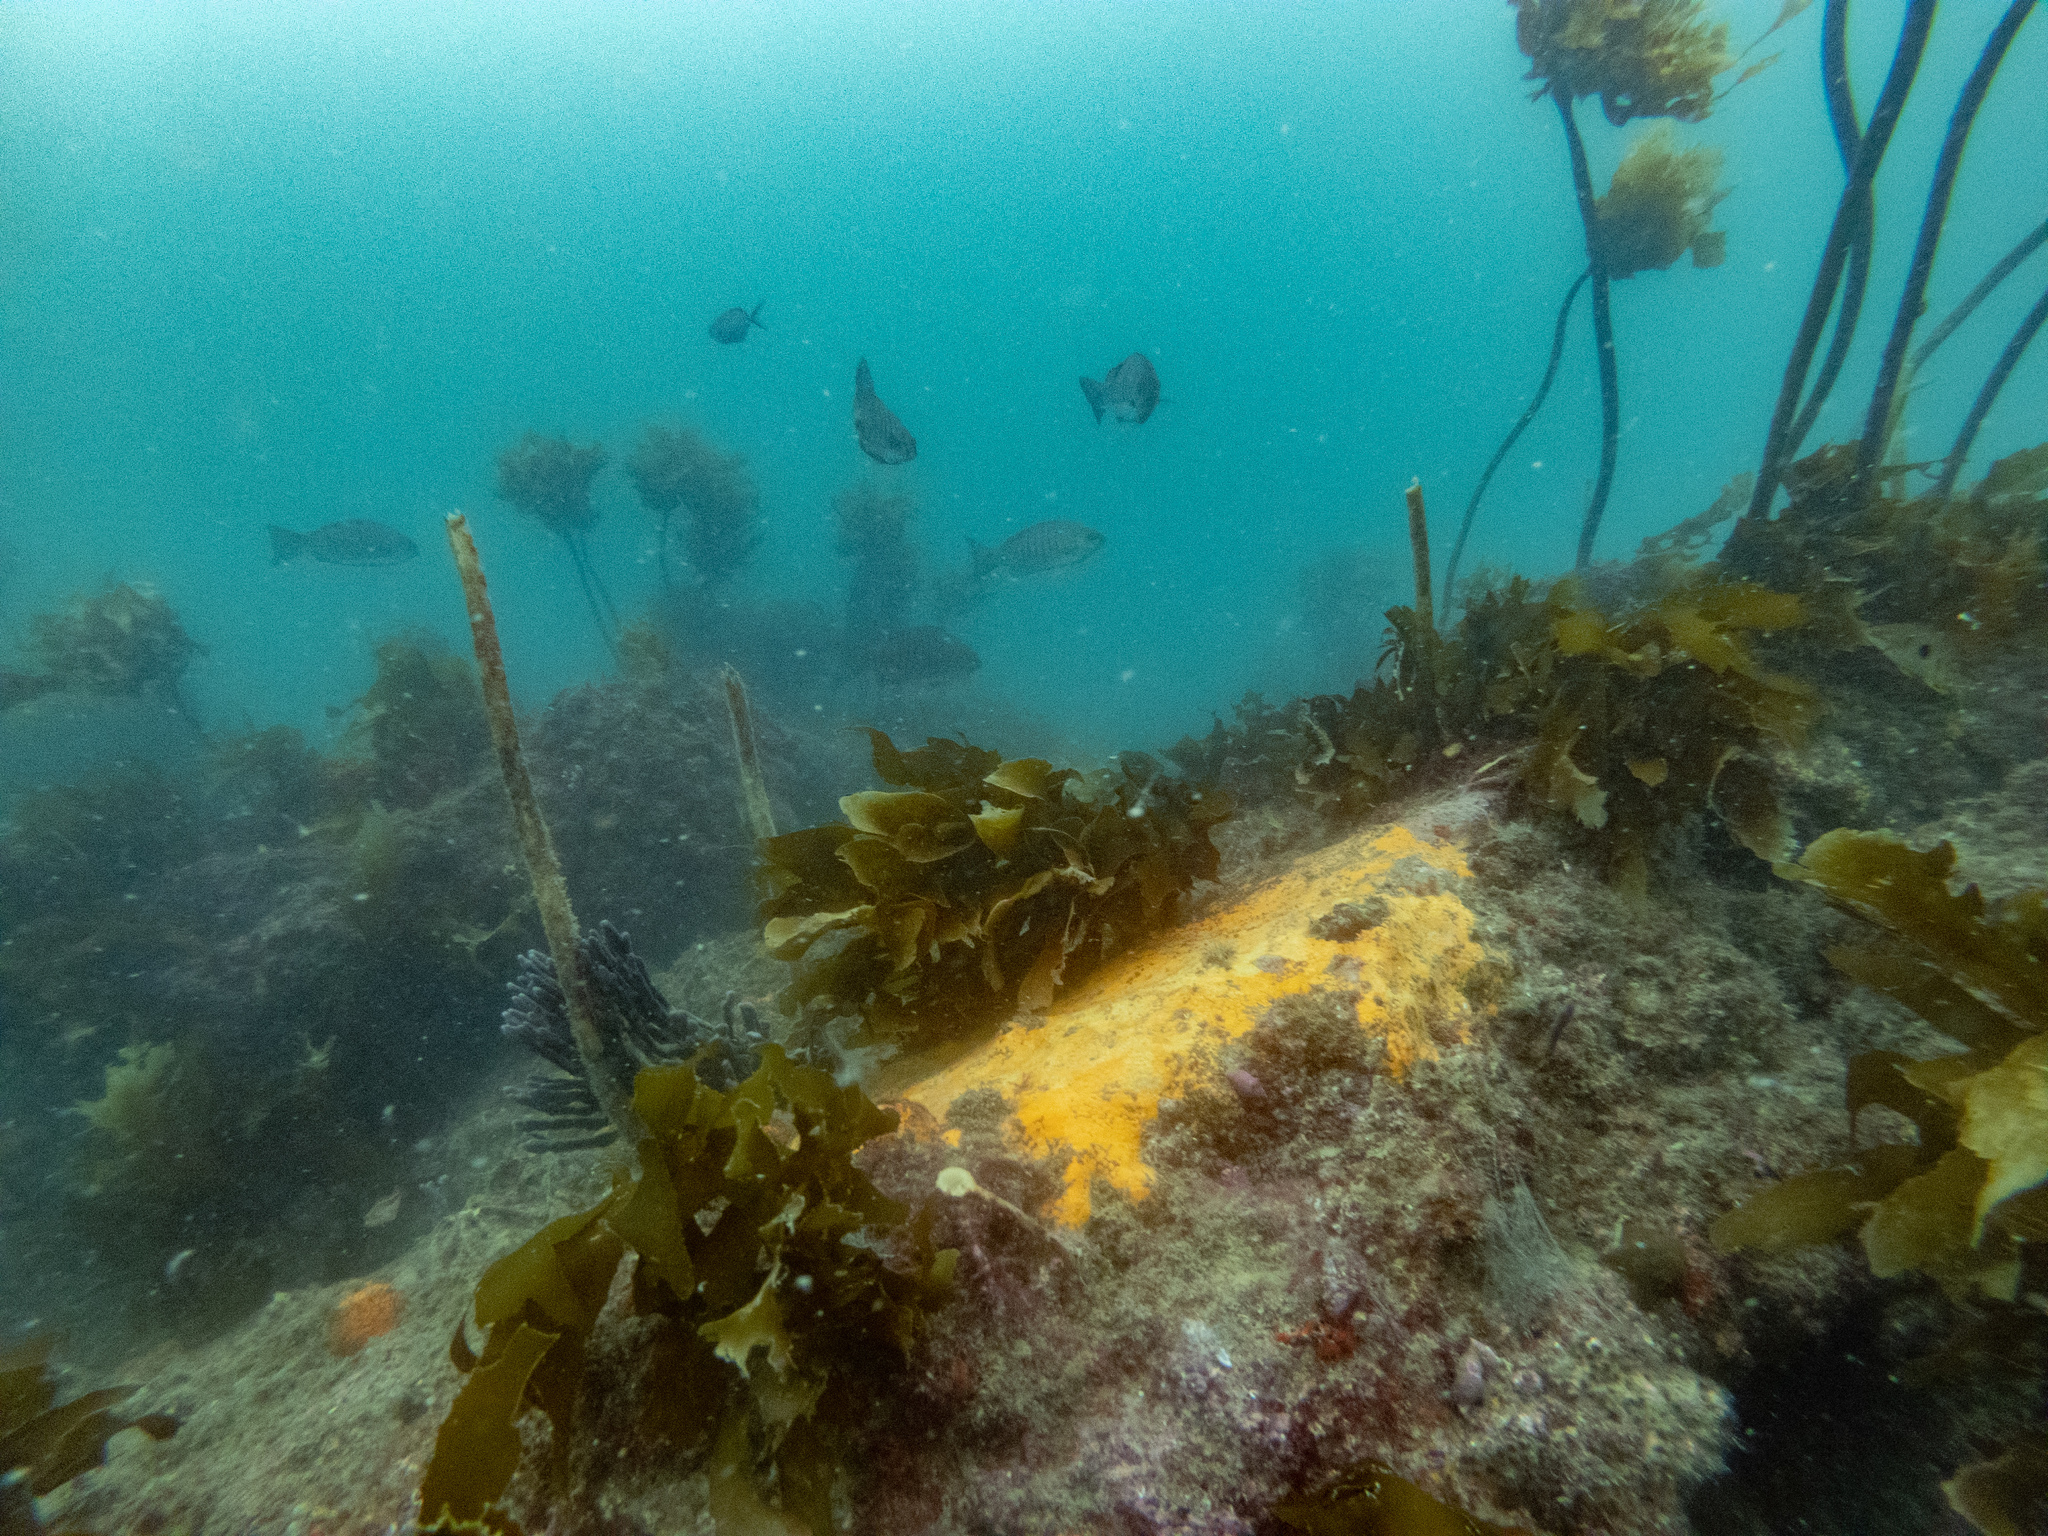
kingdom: Animalia
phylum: Chordata
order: Perciformes
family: Kyphosidae
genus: Girella
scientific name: Girella tricuspidata
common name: Parore
